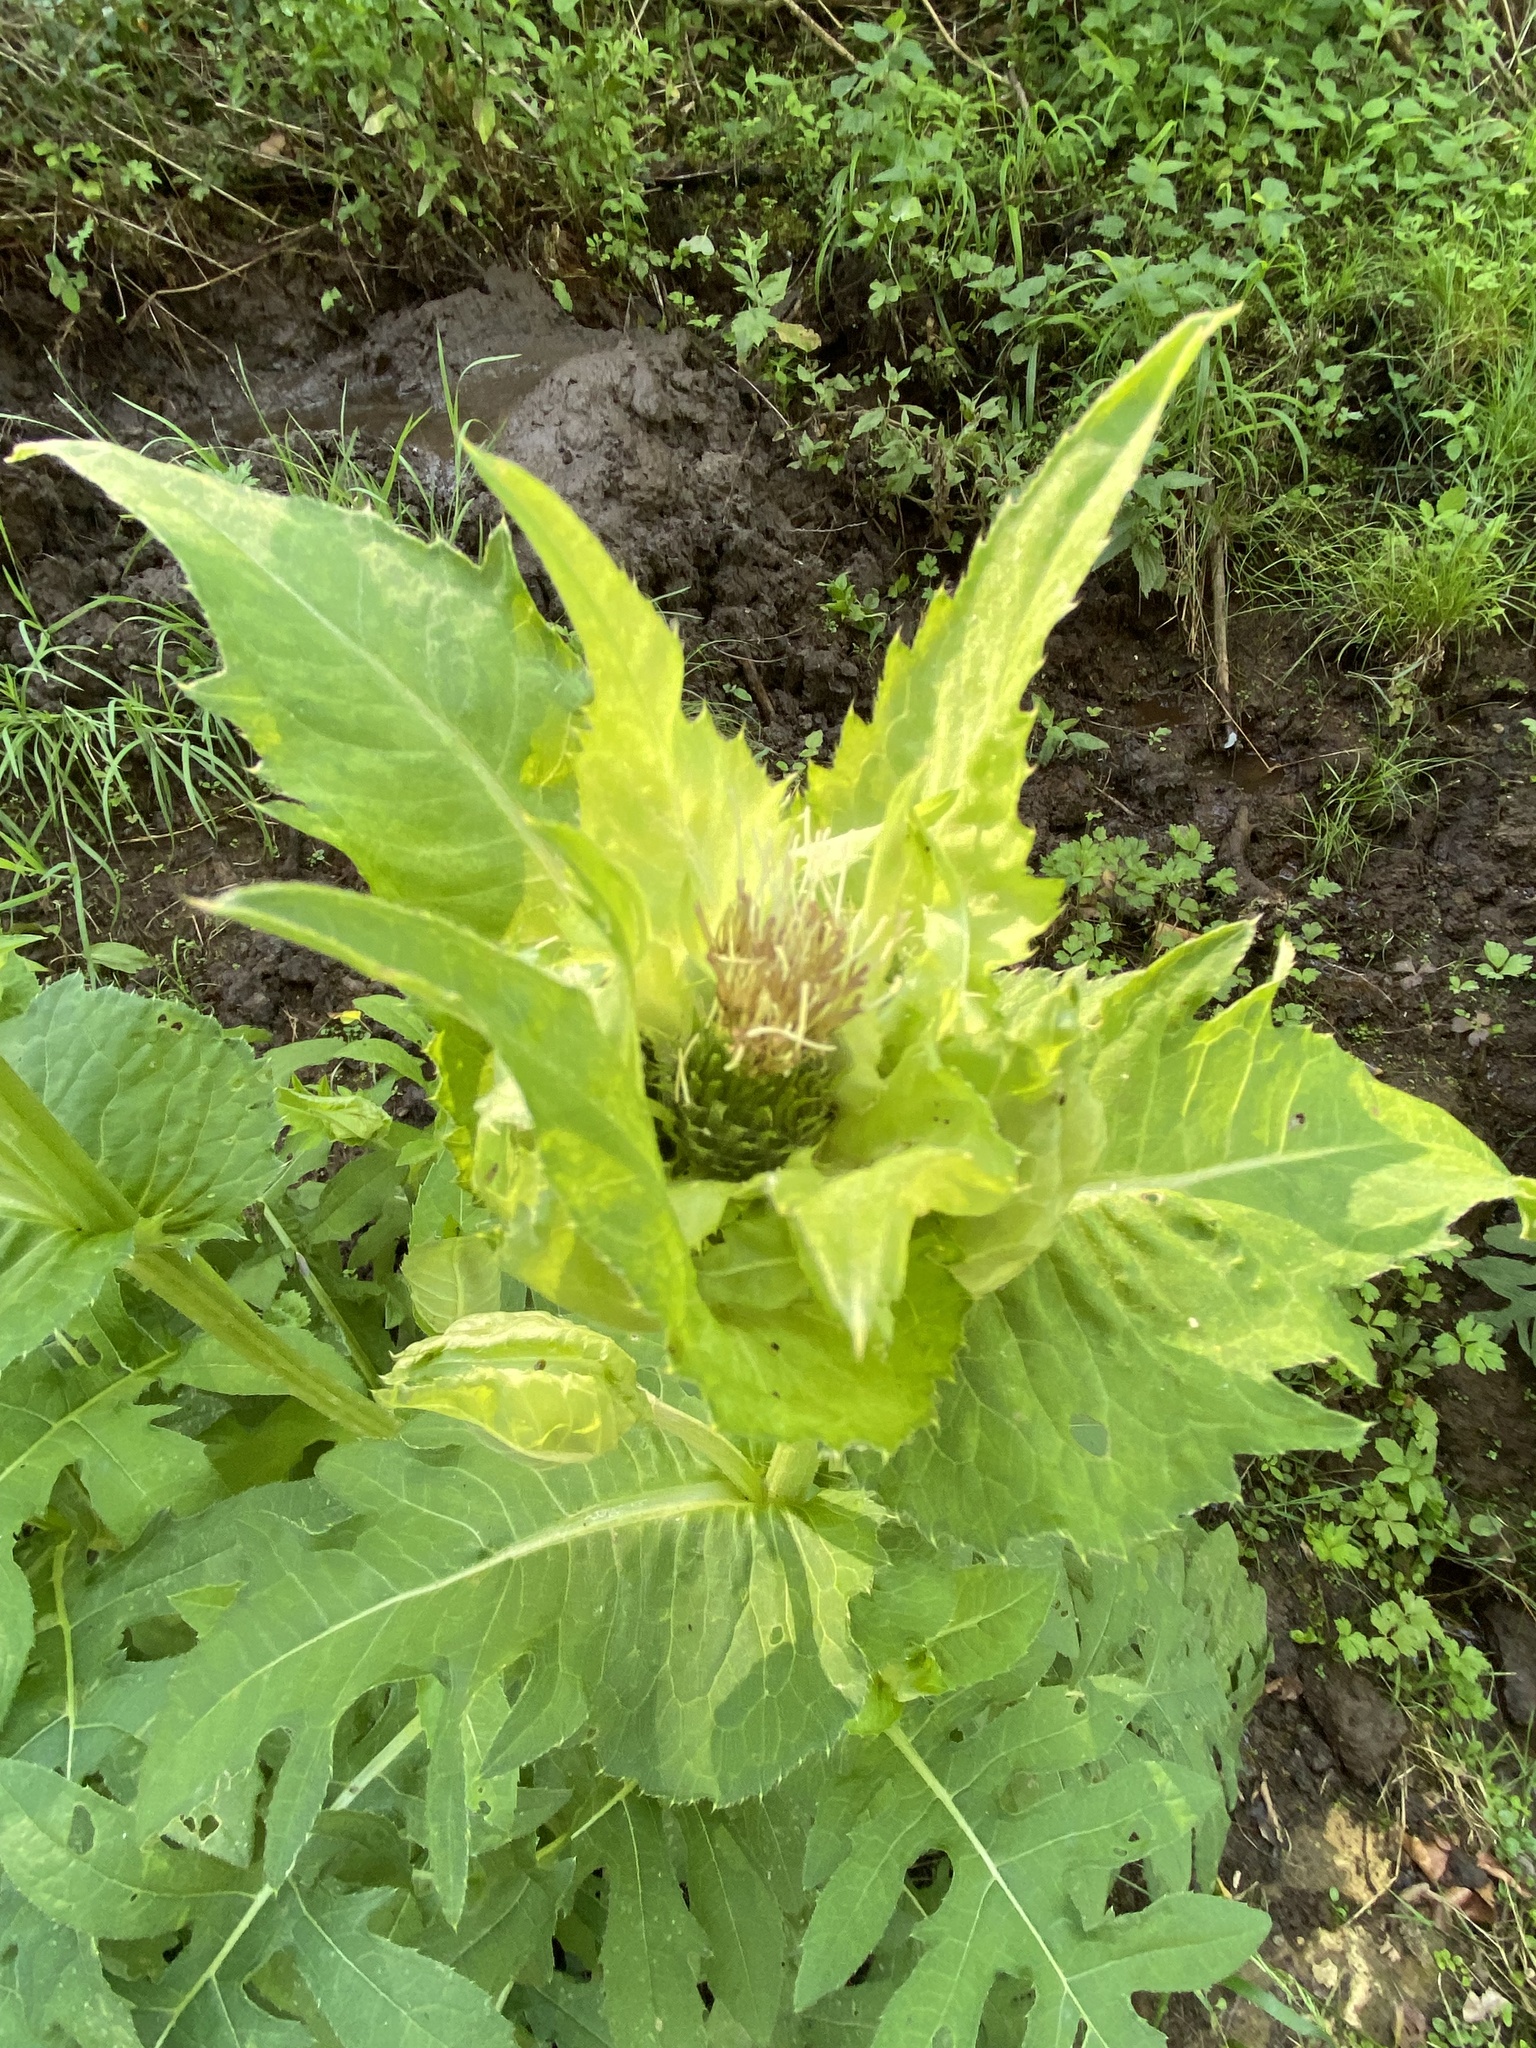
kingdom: Plantae
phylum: Tracheophyta
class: Magnoliopsida
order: Asterales
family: Asteraceae
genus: Cirsium
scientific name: Cirsium oleraceum
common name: Cabbage thistle
